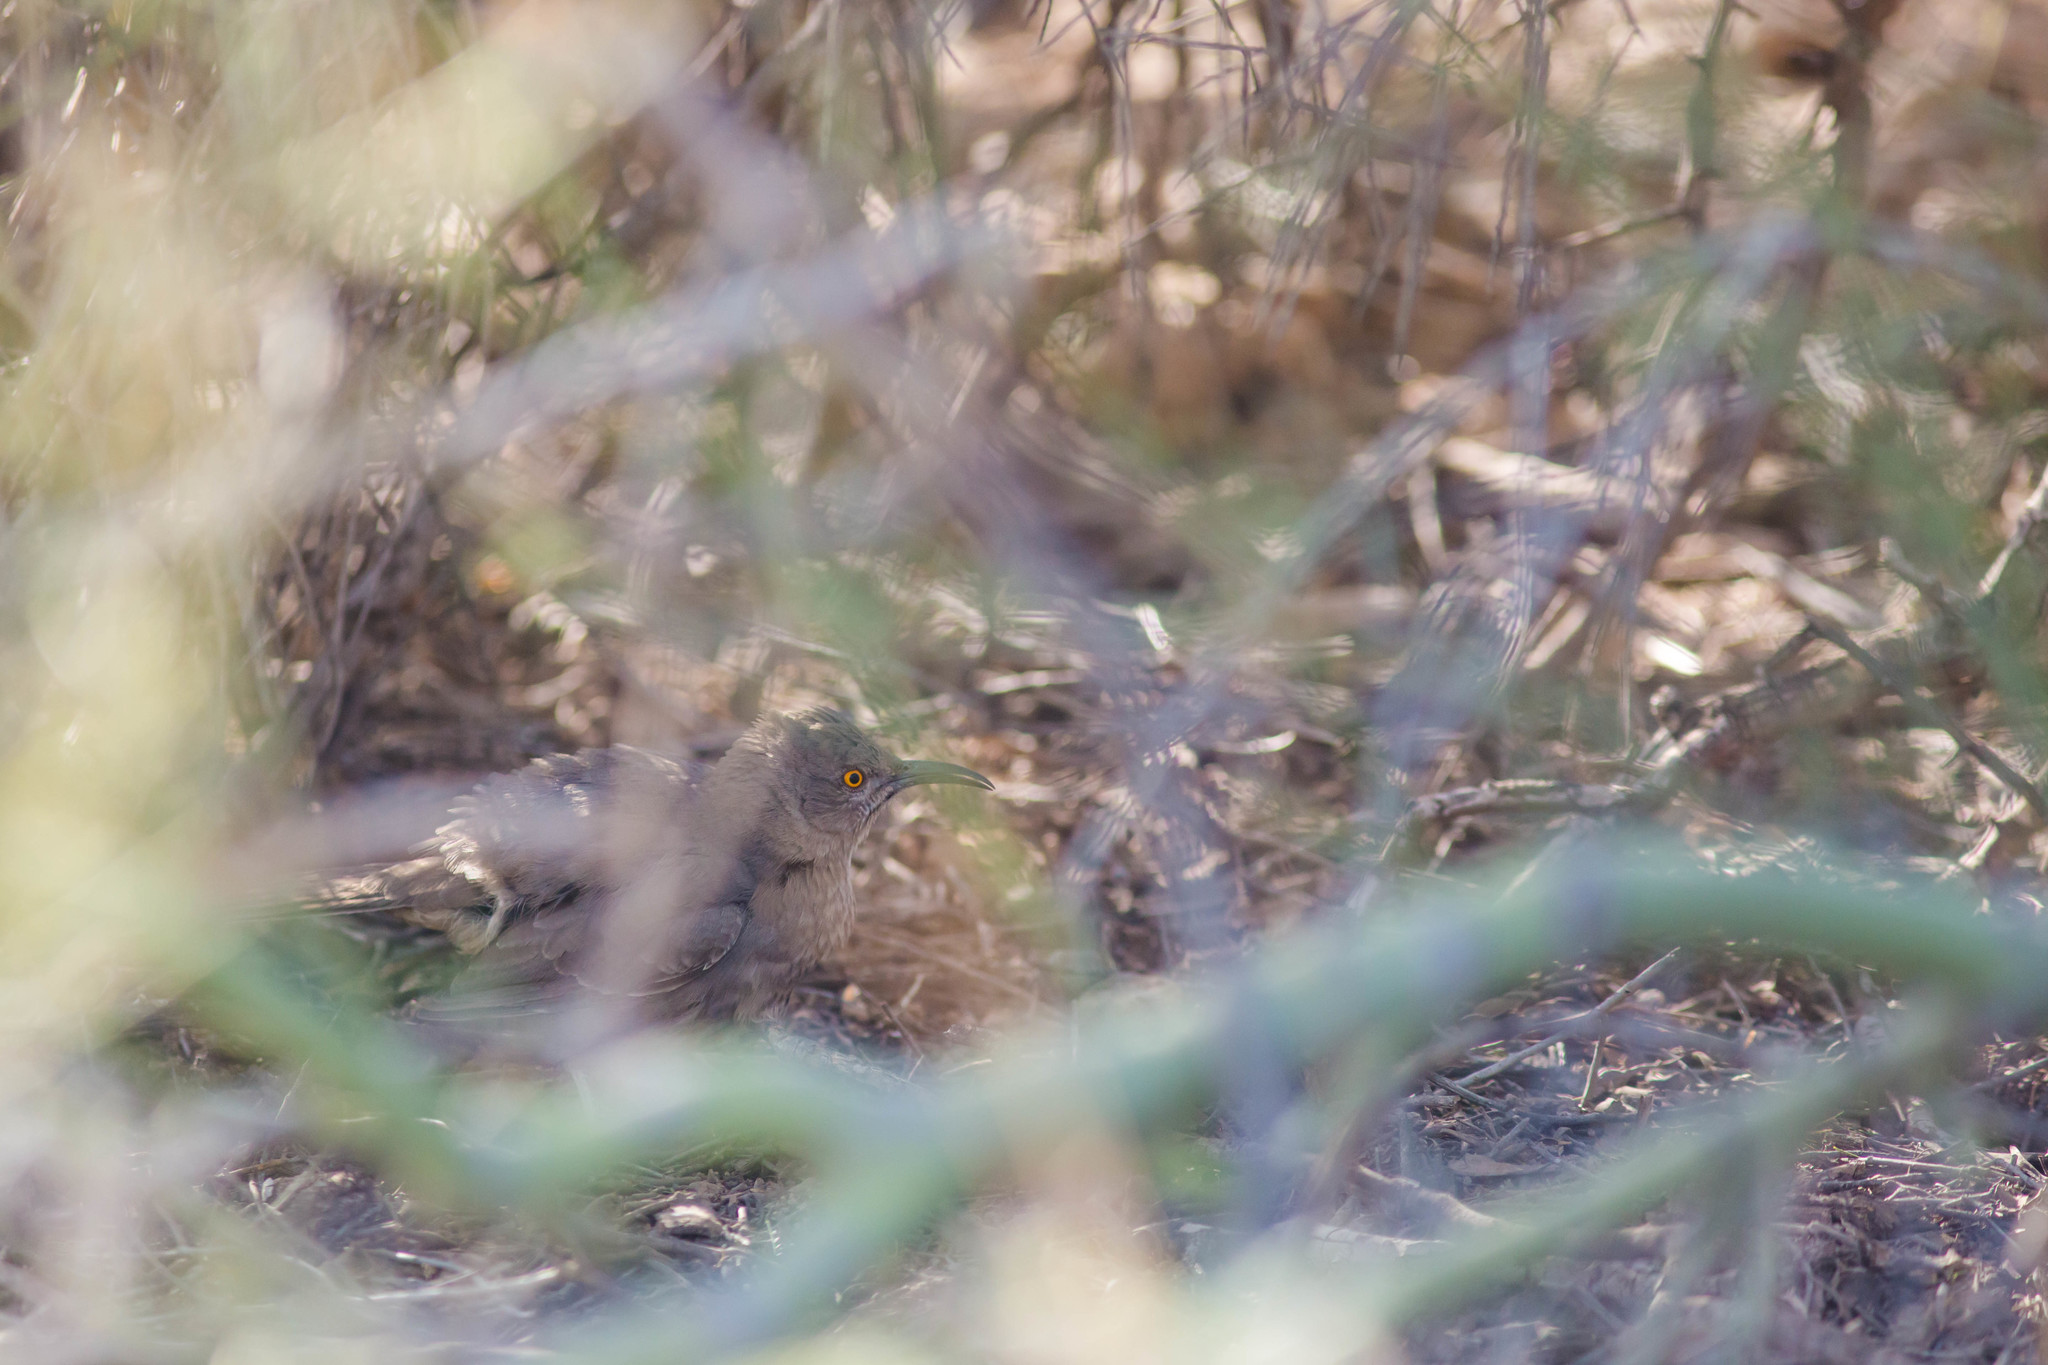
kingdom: Animalia
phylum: Chordata
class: Aves
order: Passeriformes
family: Mimidae
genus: Toxostoma
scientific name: Toxostoma curvirostre
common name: Curve-billed thrasher
